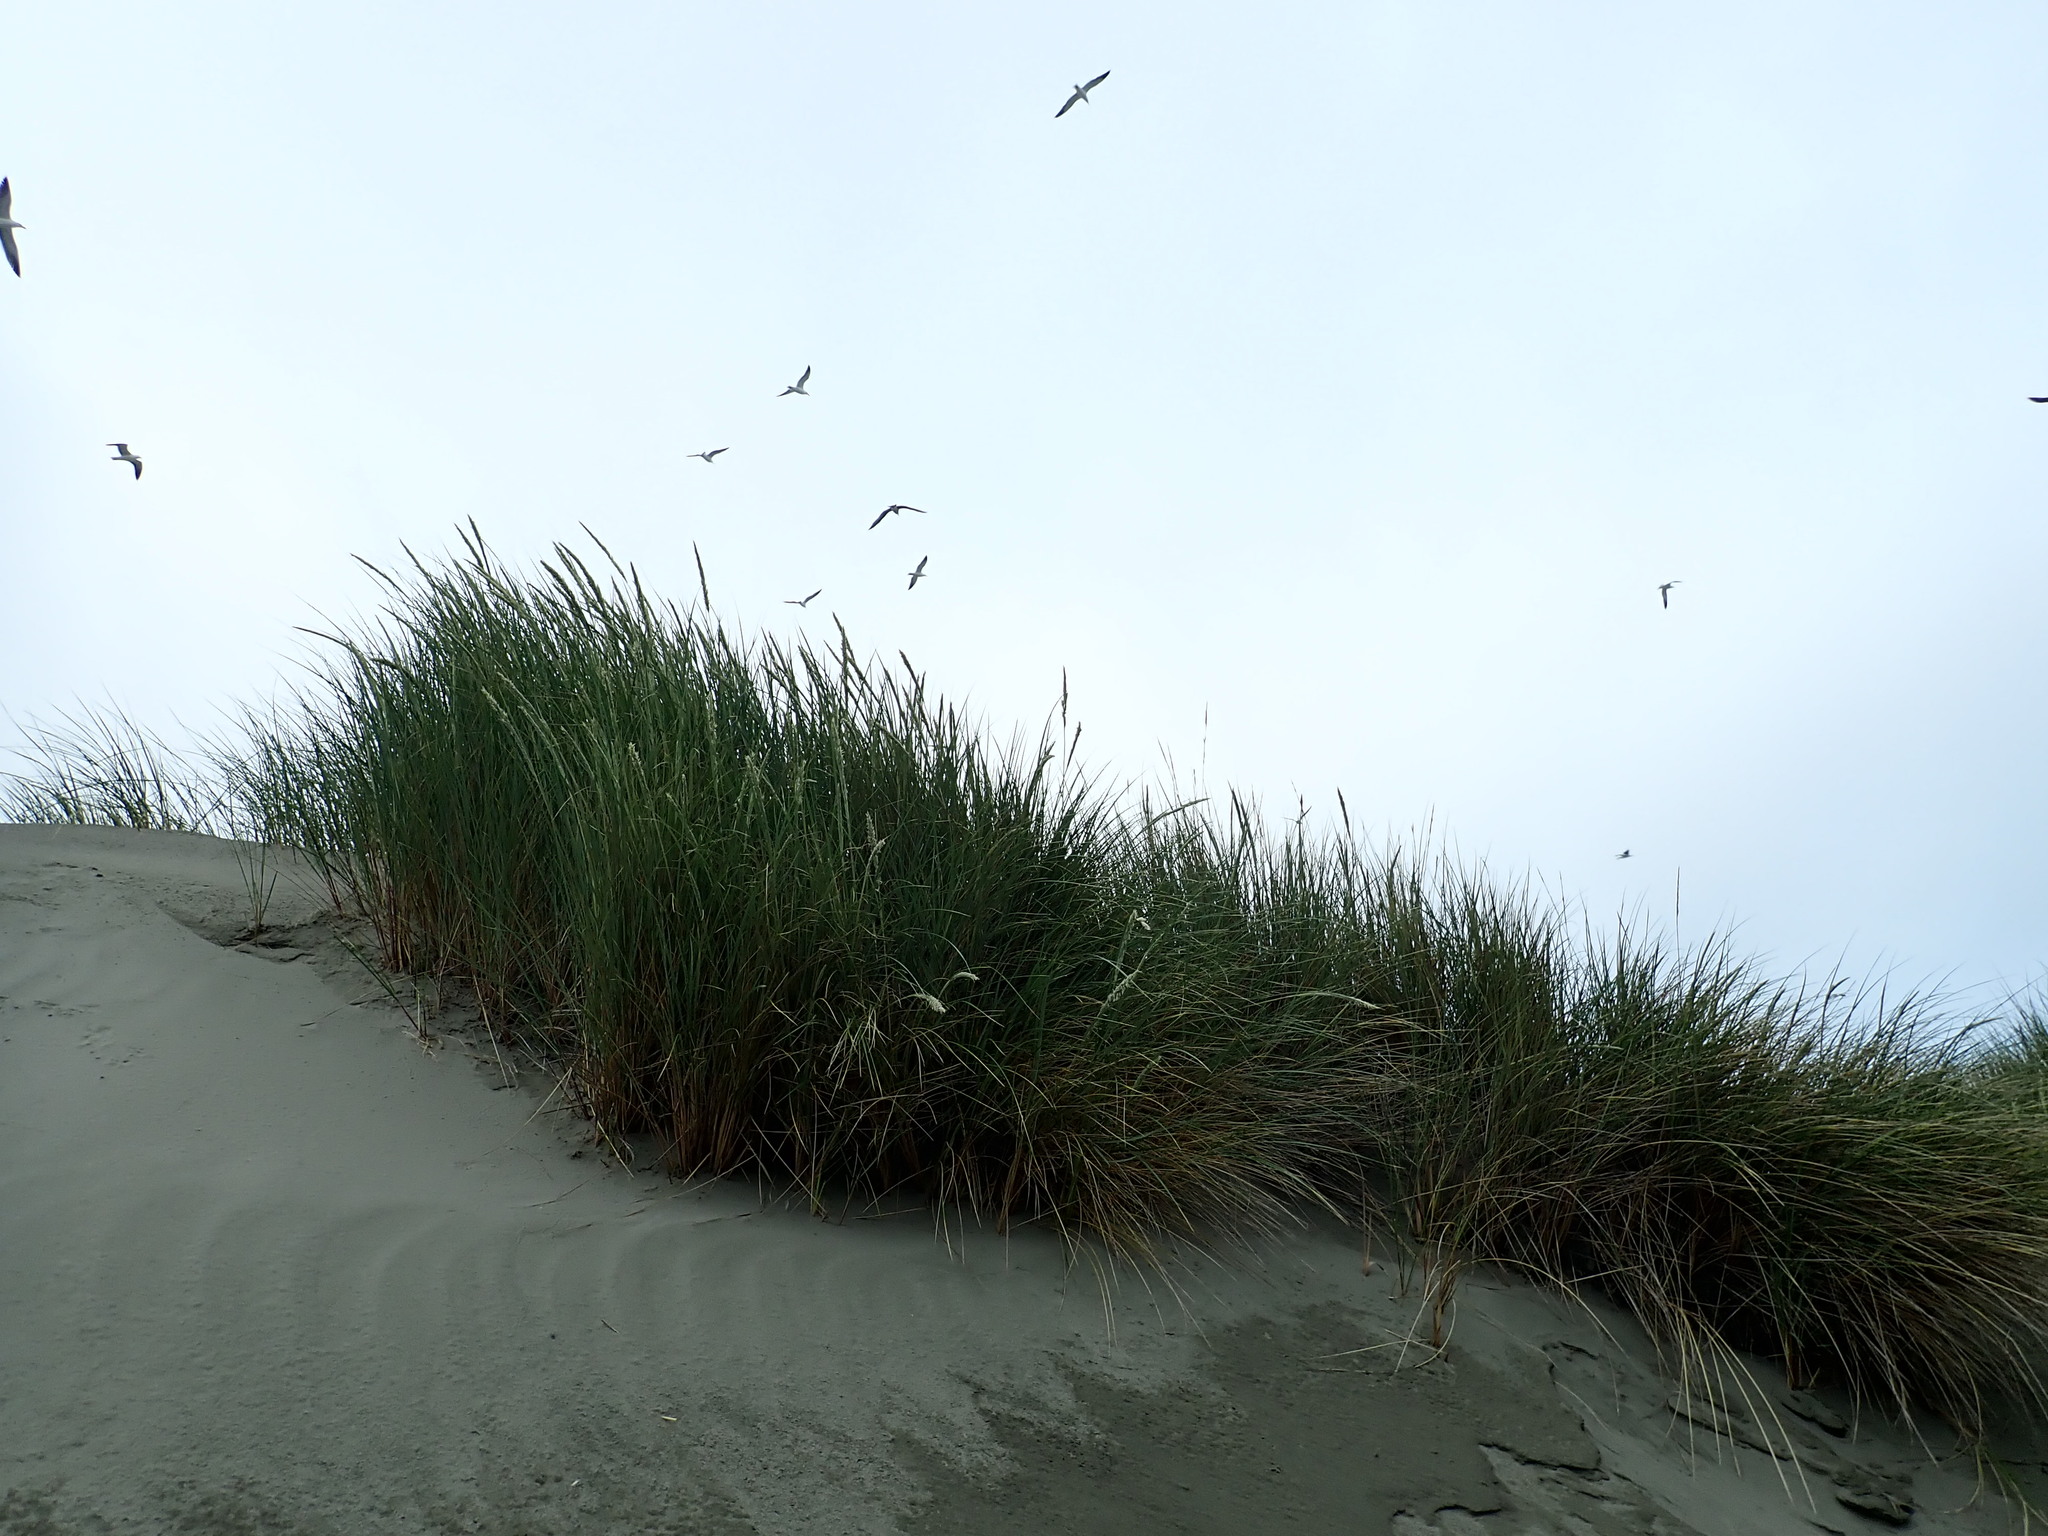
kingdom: Animalia
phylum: Chordata
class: Aves
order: Charadriiformes
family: Laridae
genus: Larus
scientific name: Larus dominicanus
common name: Kelp gull
